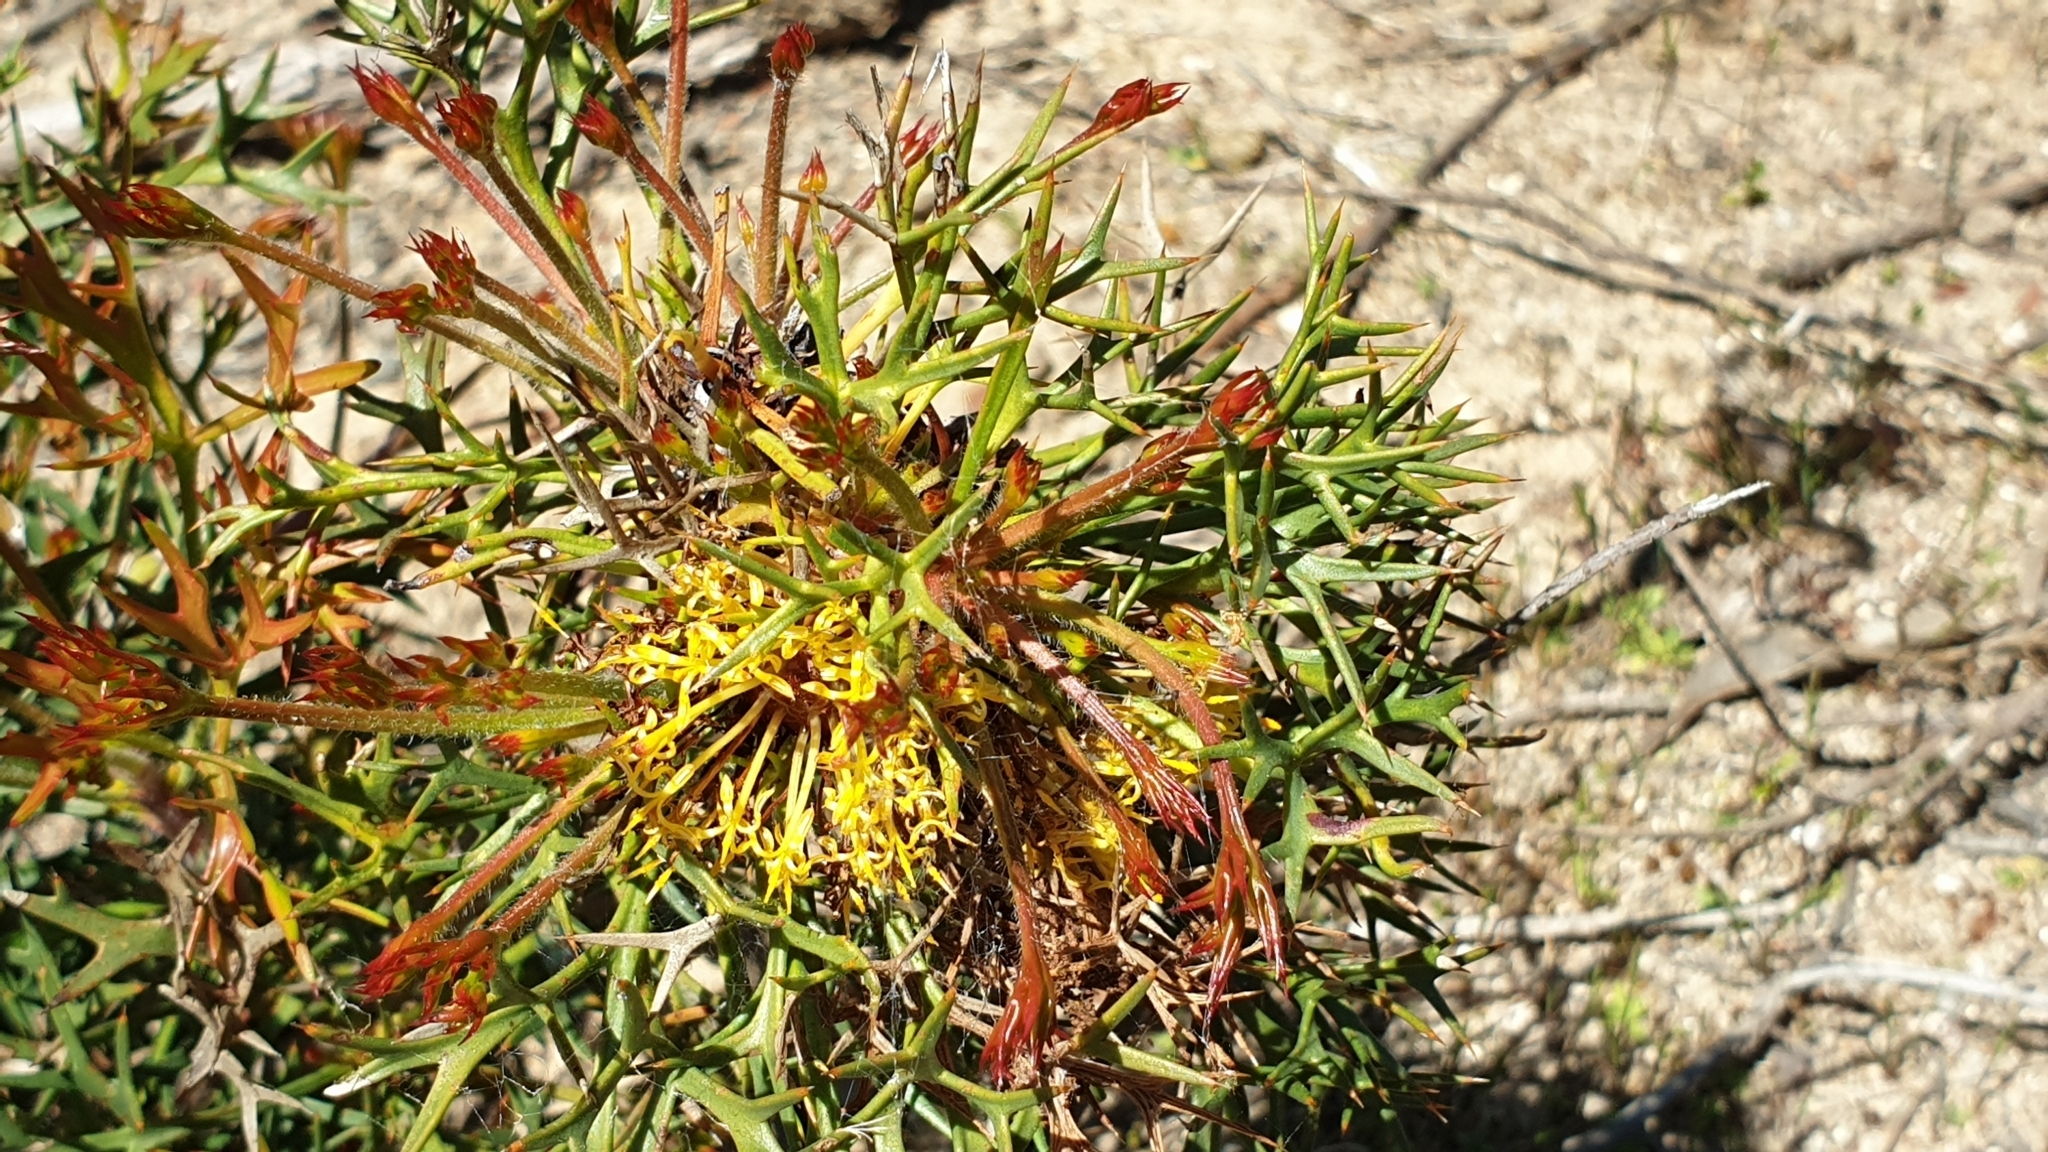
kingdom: Plantae
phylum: Tracheophyta
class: Magnoliopsida
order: Proteales
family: Proteaceae
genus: Isopogon
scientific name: Isopogon ceratophyllus
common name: Horny cone-bush
